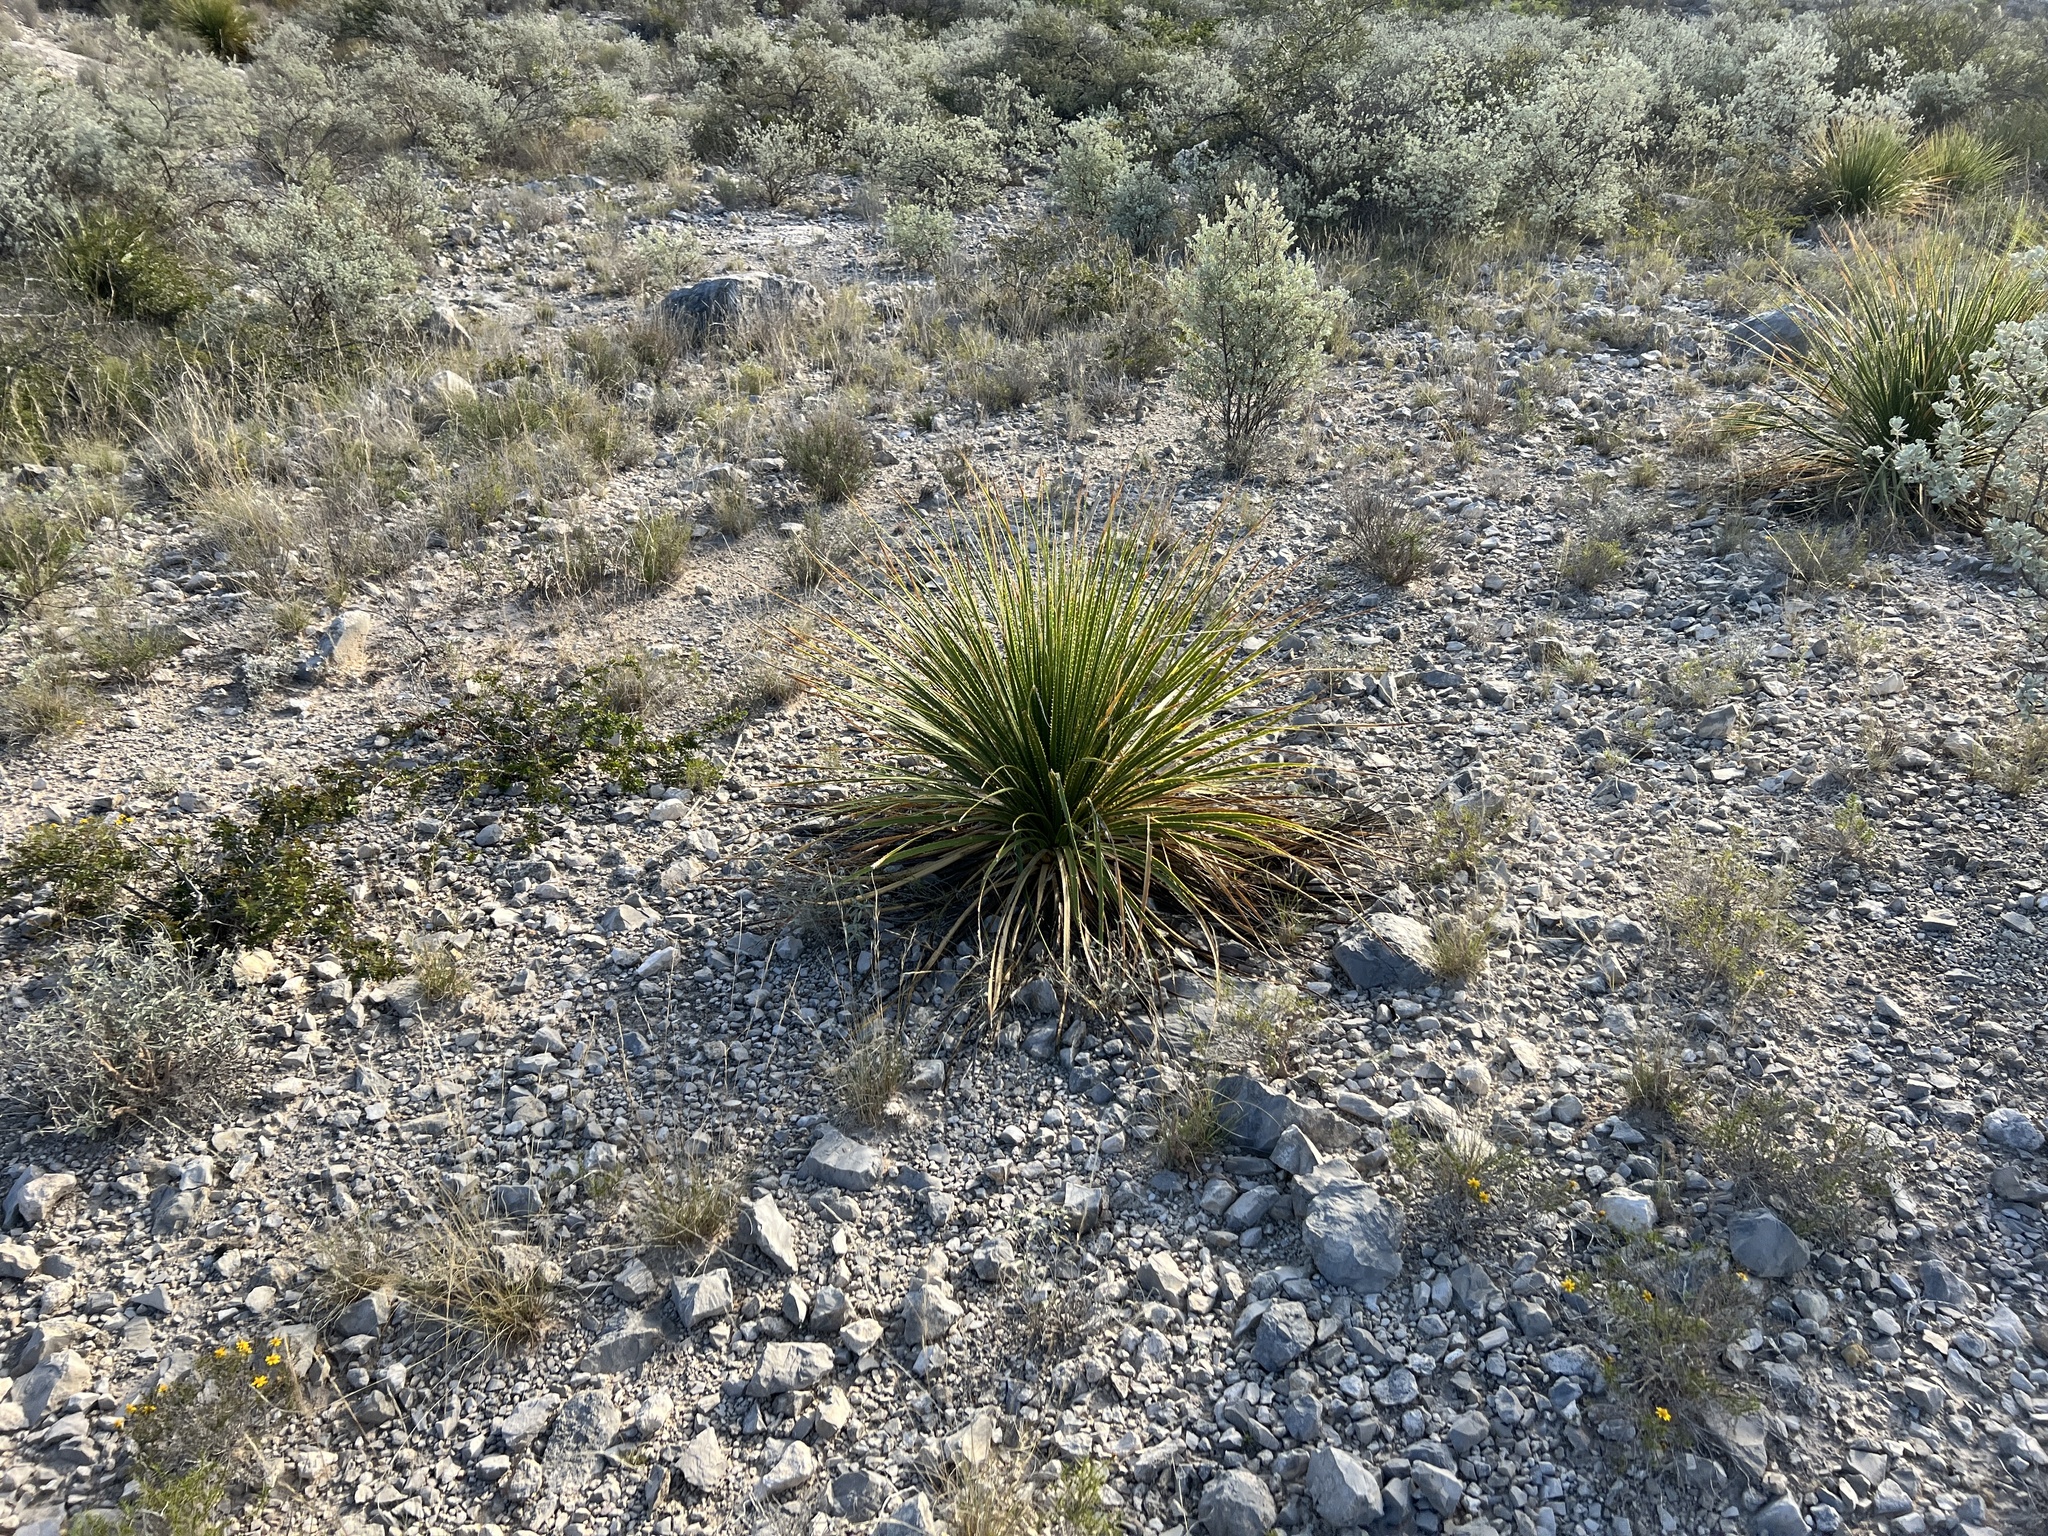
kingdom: Plantae
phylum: Tracheophyta
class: Liliopsida
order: Asparagales
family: Asparagaceae
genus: Dasylirion
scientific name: Dasylirion texanum
